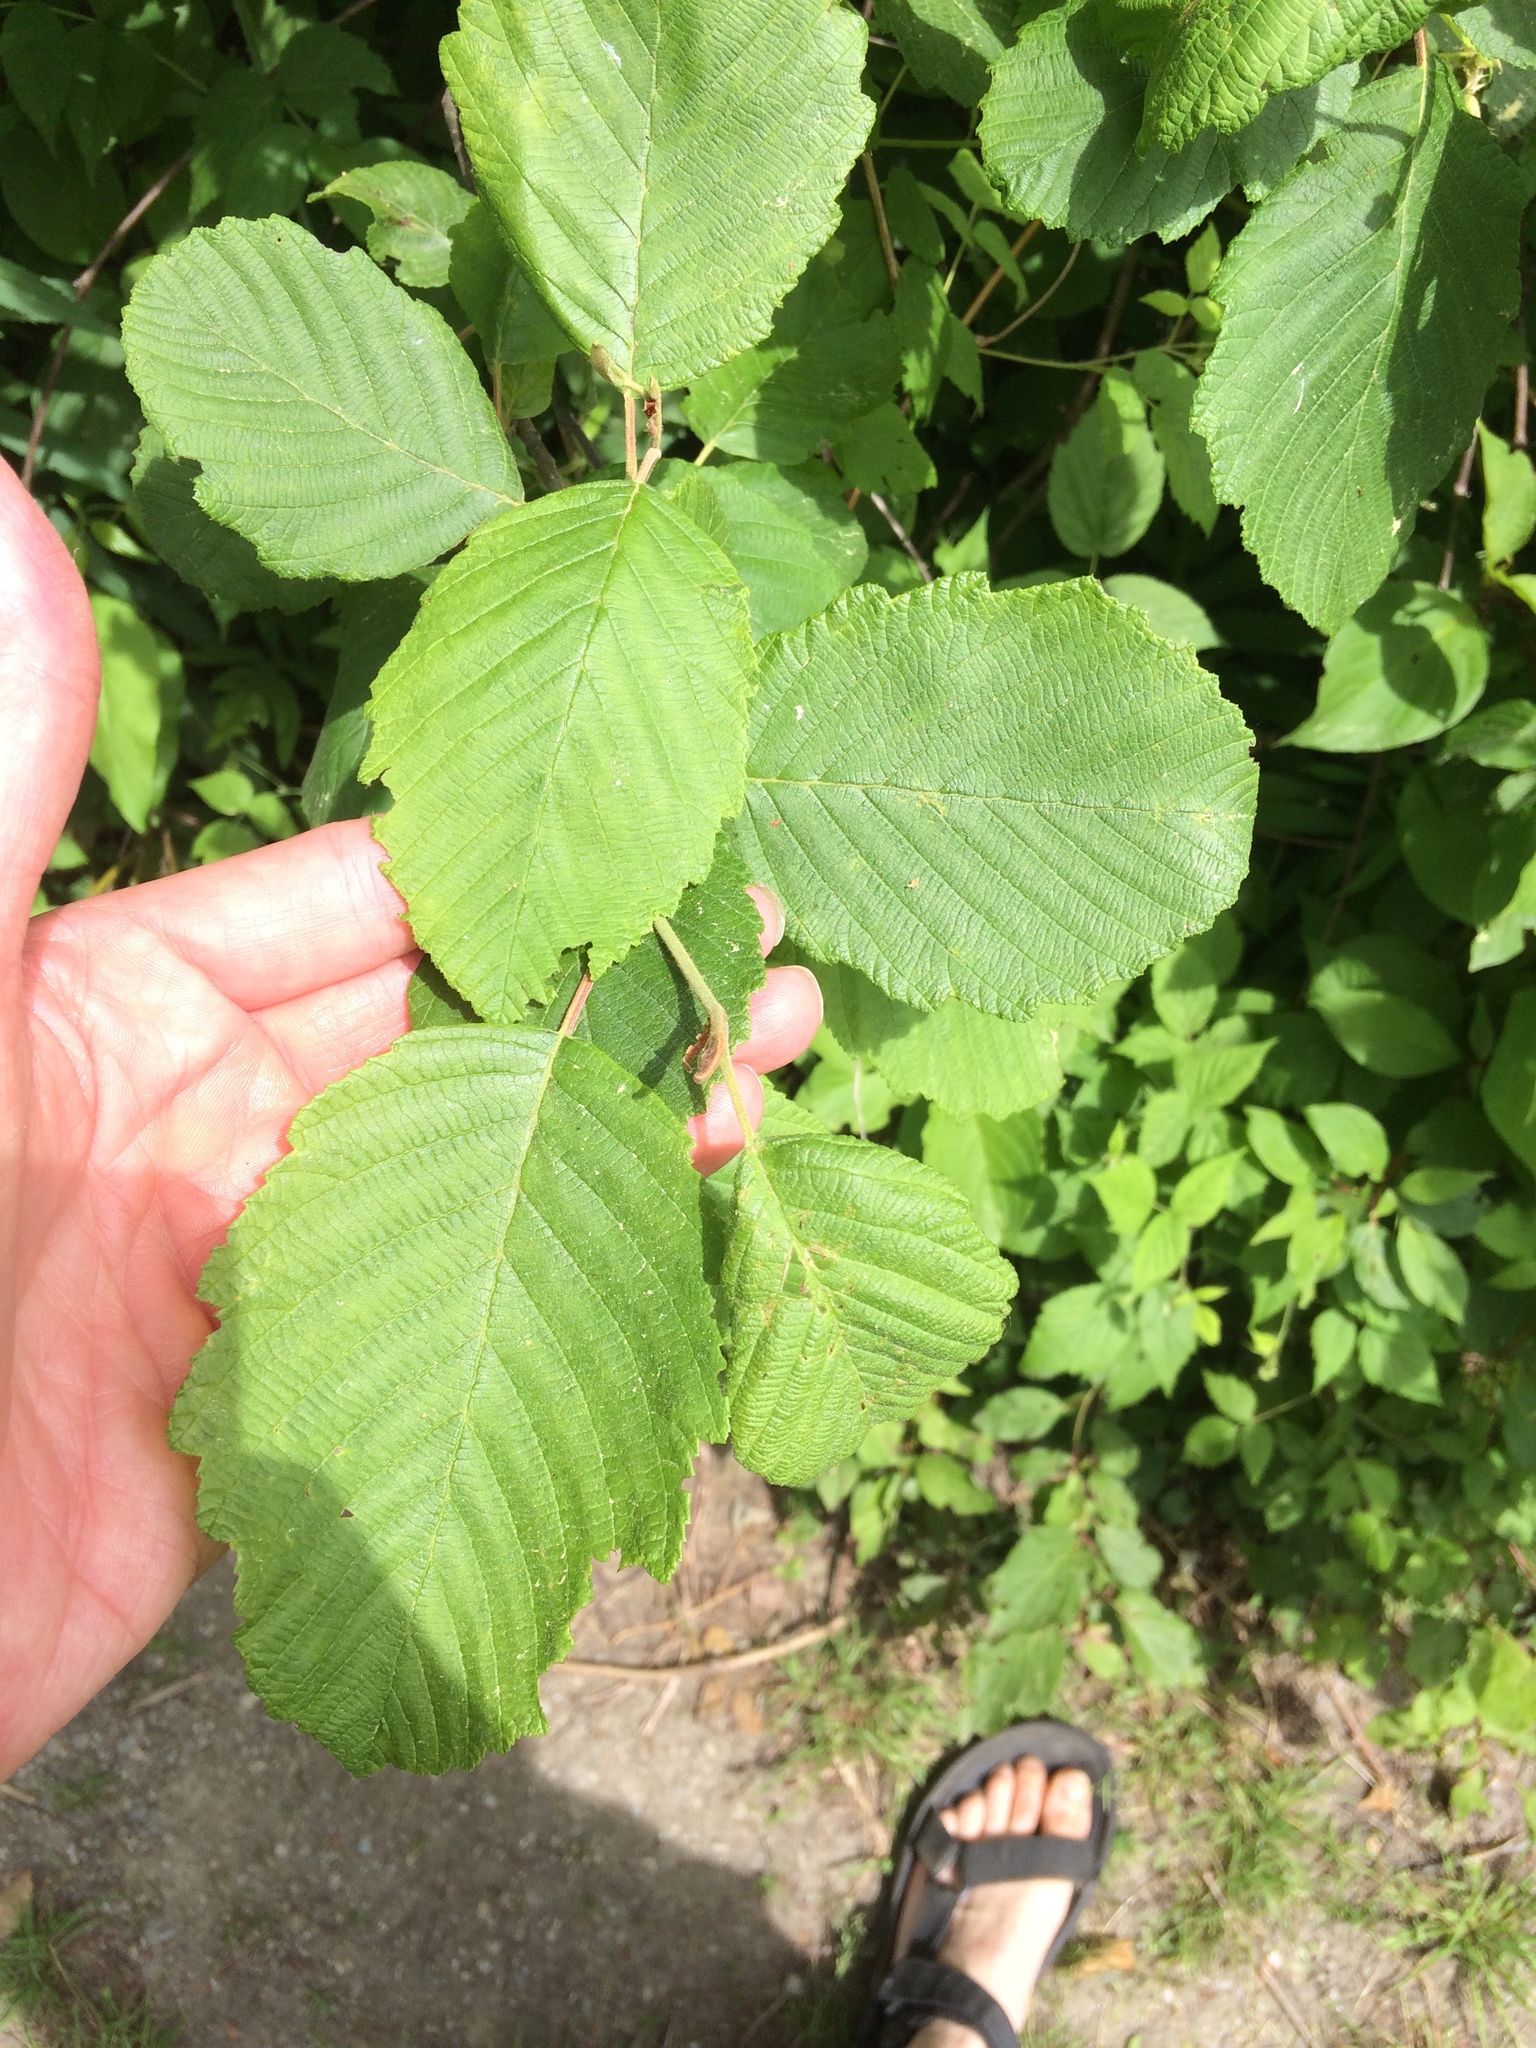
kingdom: Plantae
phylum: Tracheophyta
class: Magnoliopsida
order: Fagales
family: Betulaceae
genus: Corylus
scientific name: Corylus cornuta
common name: Beaked hazel
